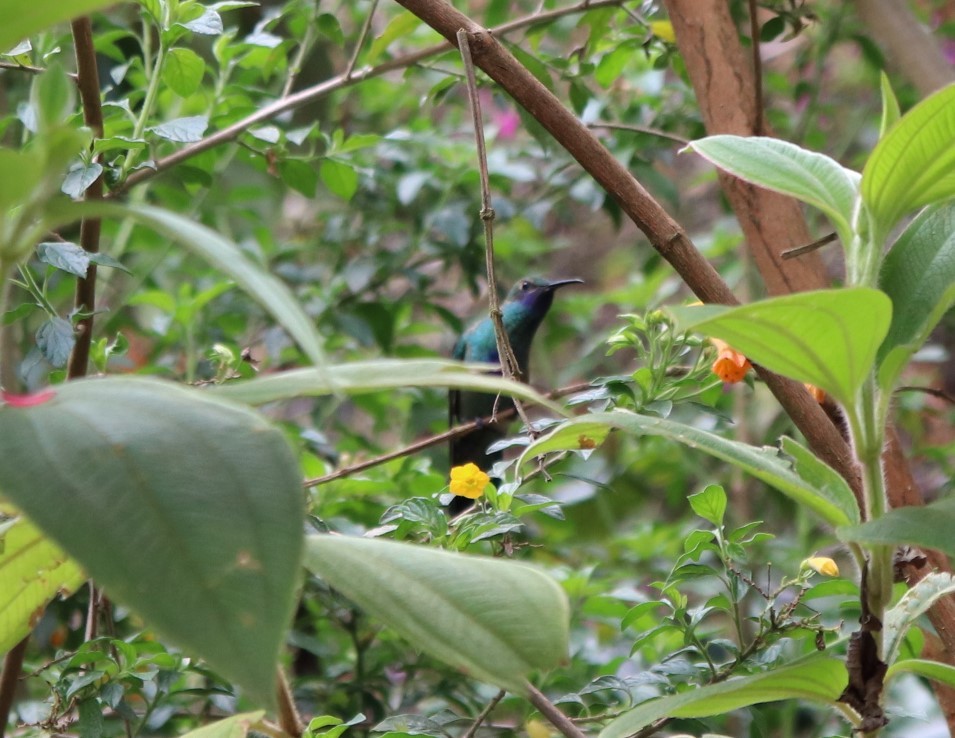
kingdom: Animalia
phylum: Chordata
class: Aves
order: Apodiformes
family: Trochilidae
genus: Colibri
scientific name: Colibri coruscans
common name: Sparkling violetear
